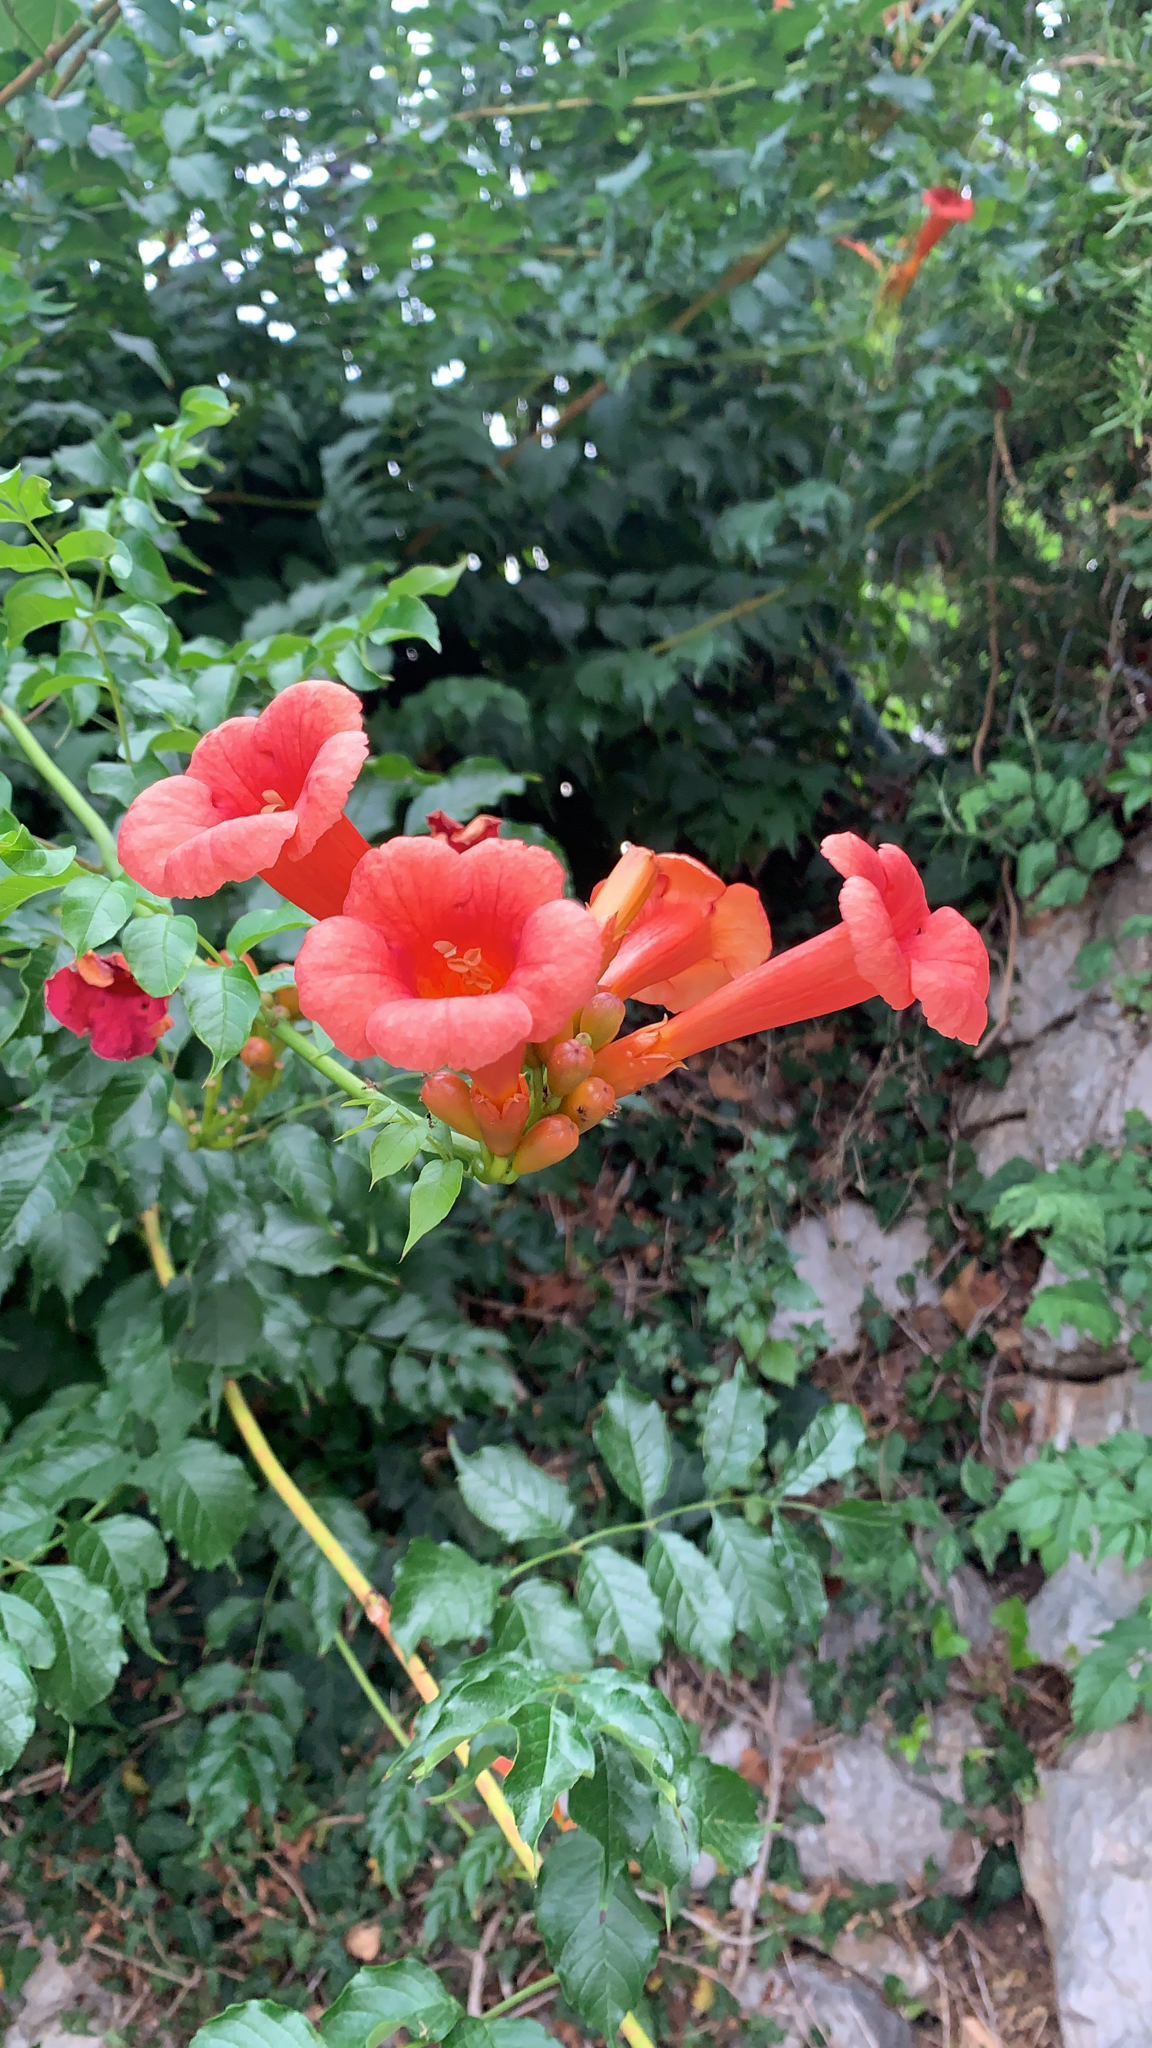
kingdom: Plantae
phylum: Tracheophyta
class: Magnoliopsida
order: Lamiales
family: Bignoniaceae
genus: Campsis
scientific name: Campsis radicans
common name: Trumpet-creeper
